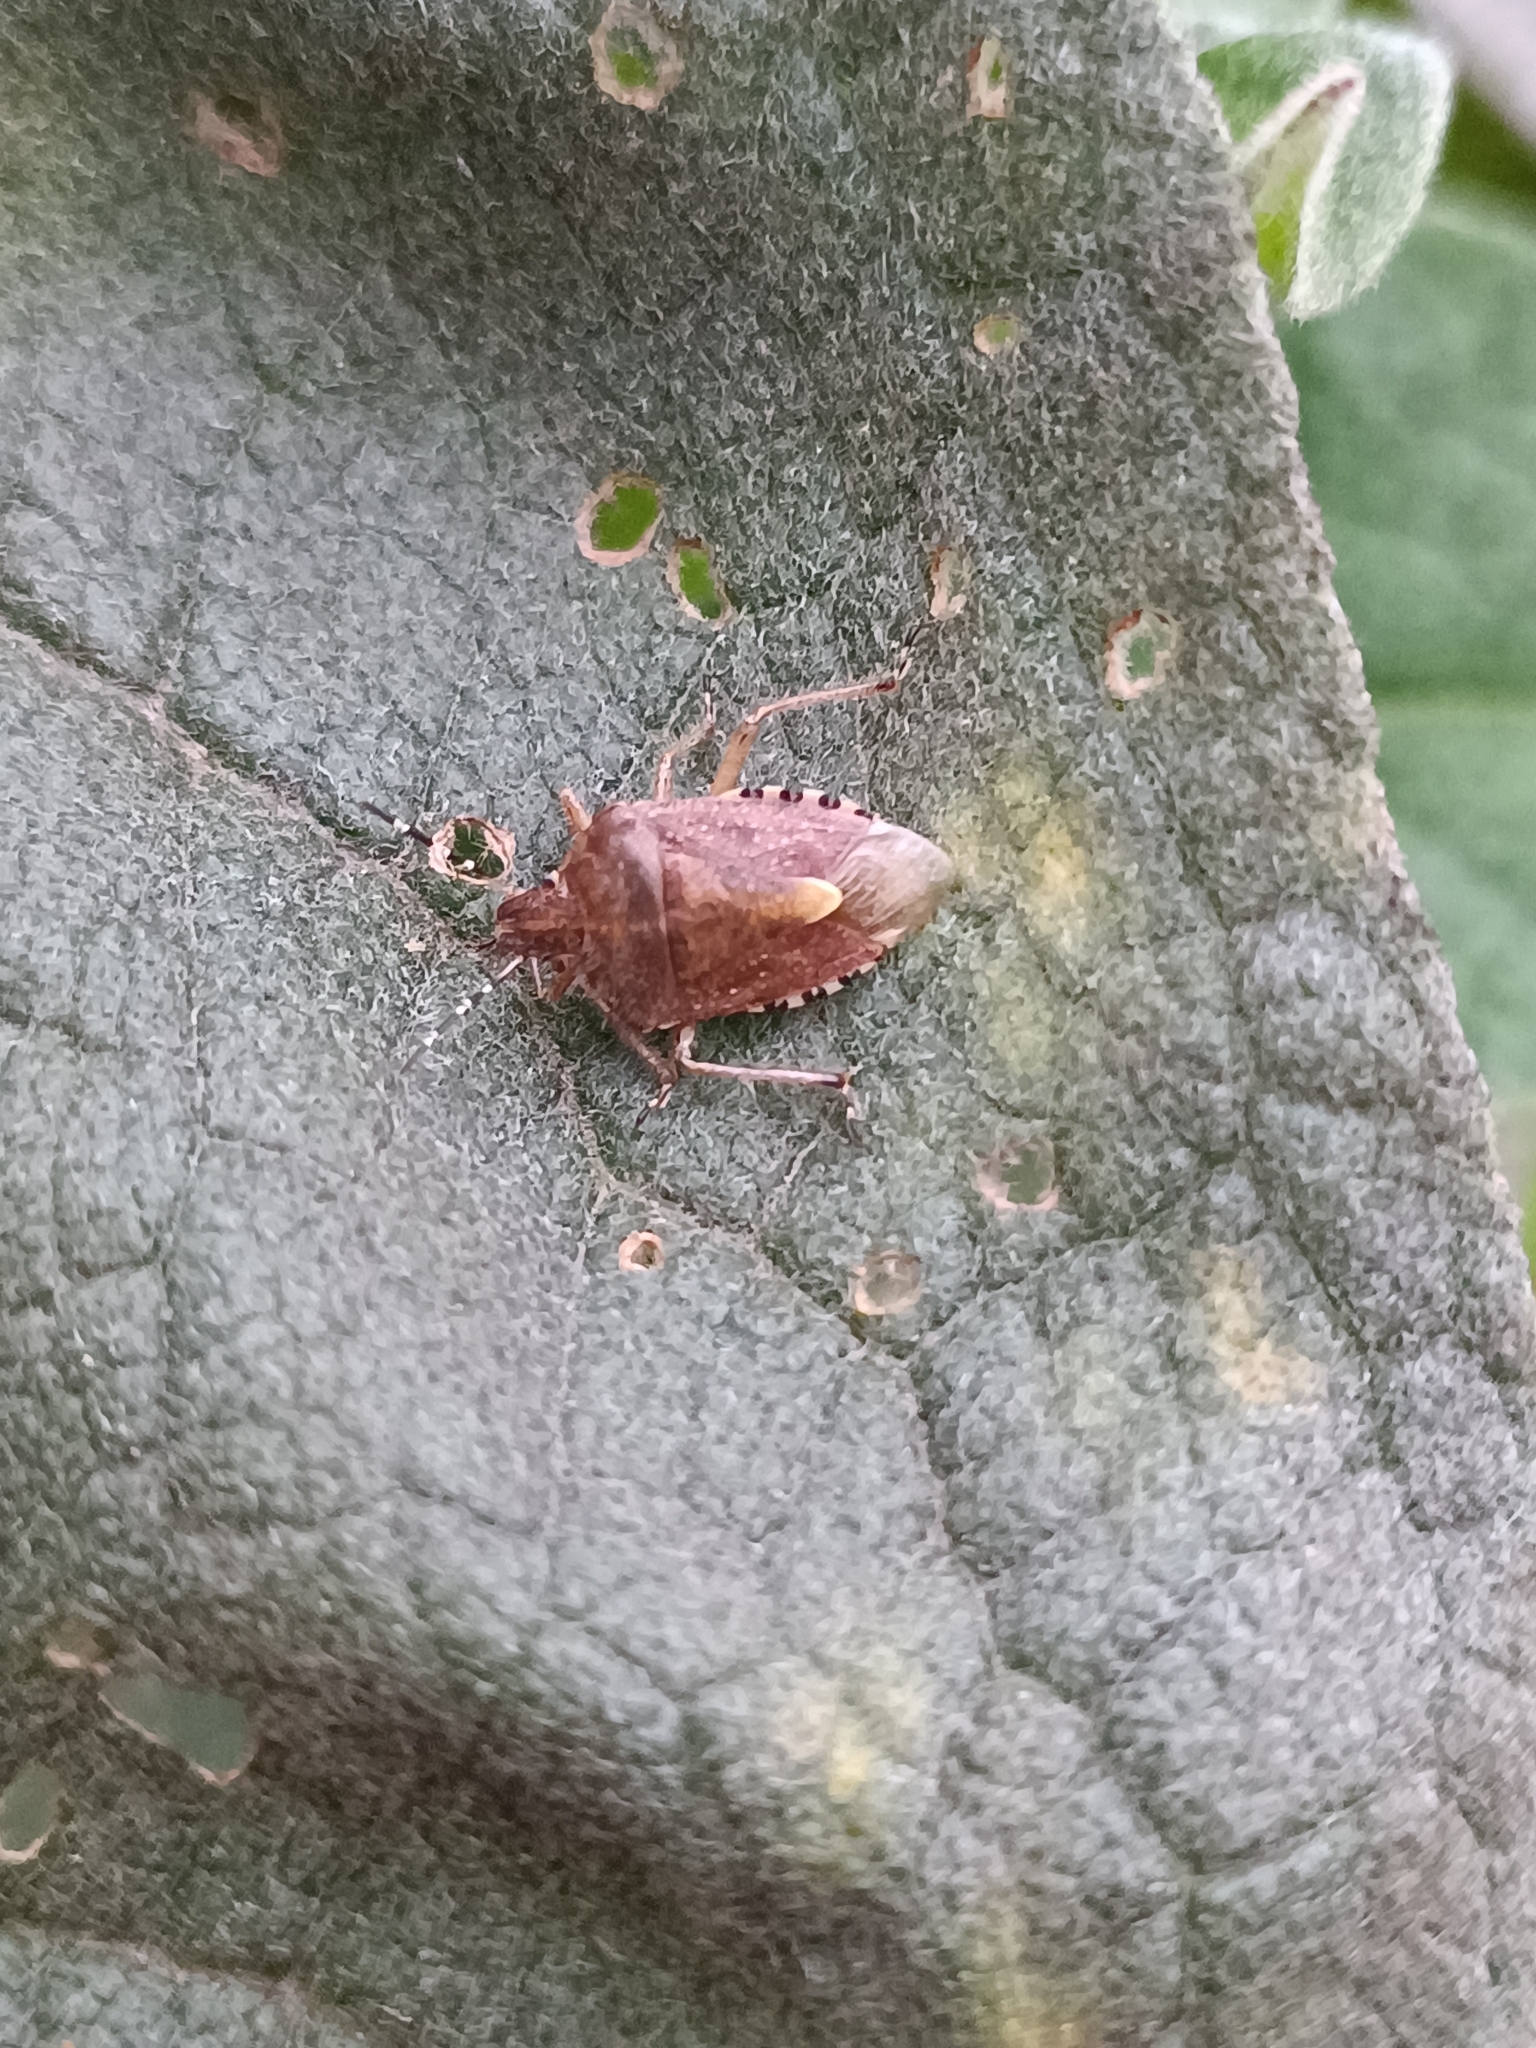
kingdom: Animalia
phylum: Arthropoda
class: Insecta
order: Hemiptera
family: Pentatomidae
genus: Dolycoris
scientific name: Dolycoris baccarum
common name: Sloe bug
